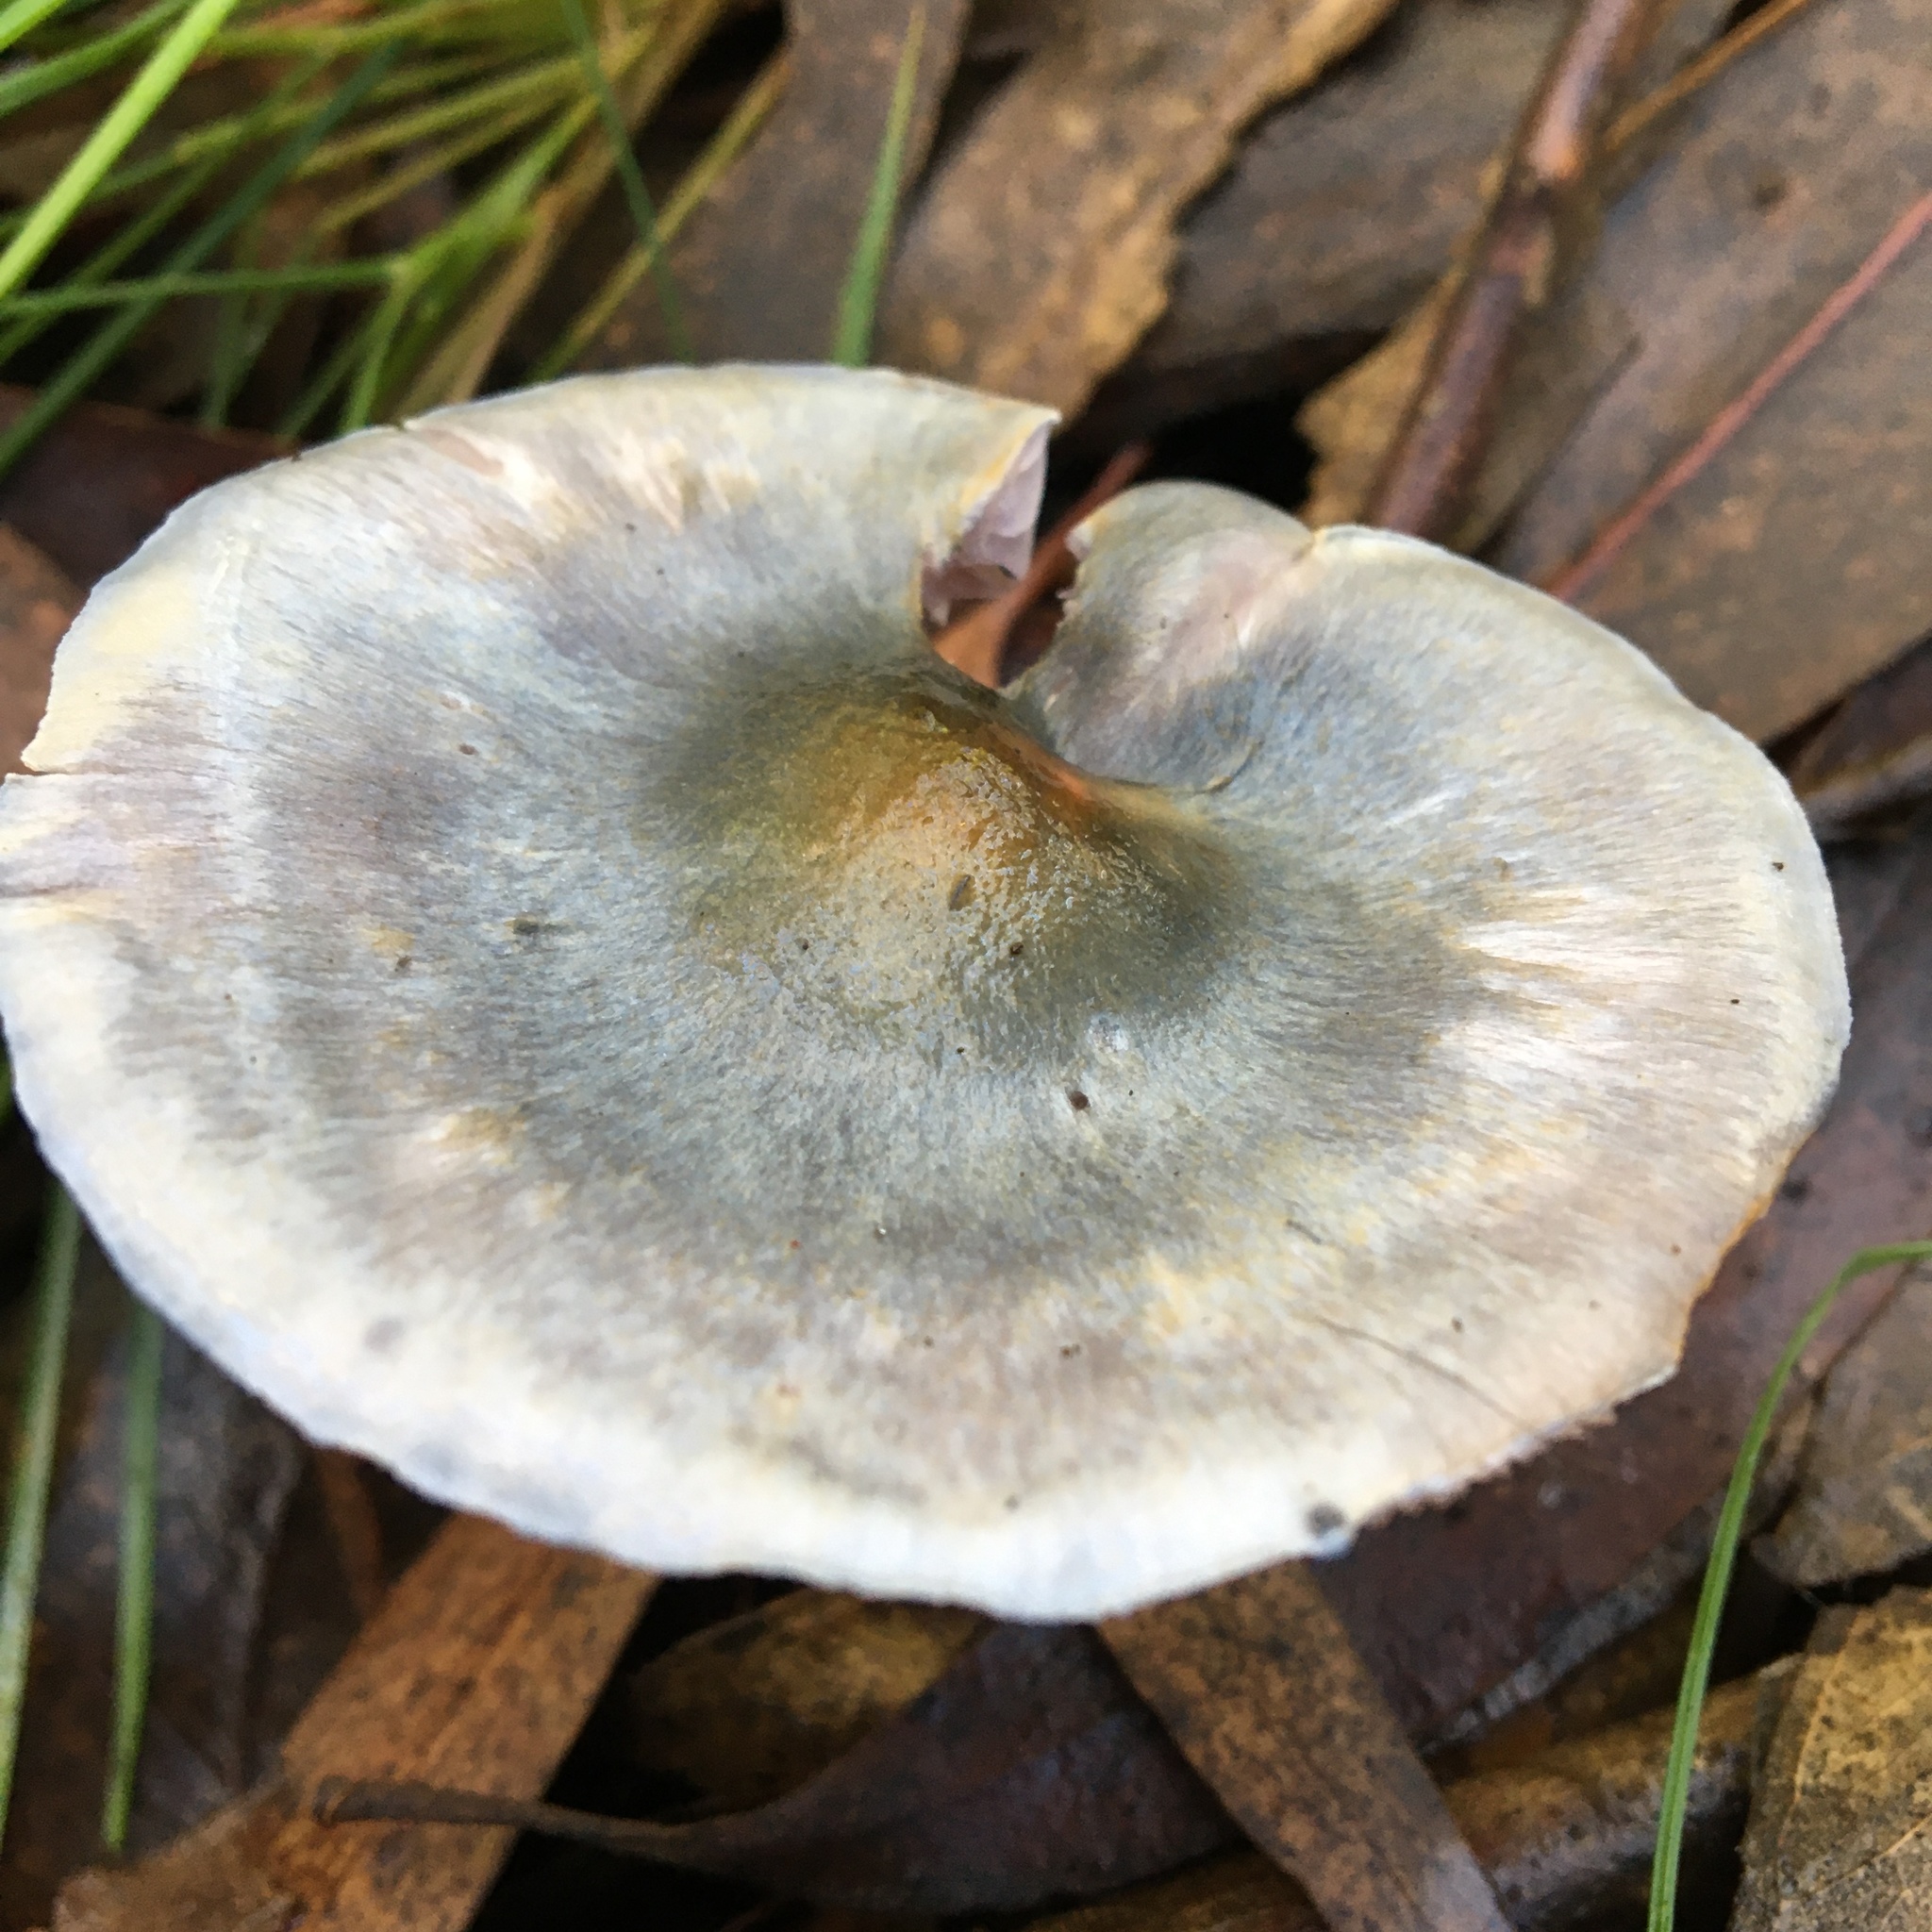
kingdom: Fungi
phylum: Basidiomycota
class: Agaricomycetes
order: Agaricales
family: Cortinariaceae
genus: Cortinarius
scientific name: Cortinarius rotundisporus
